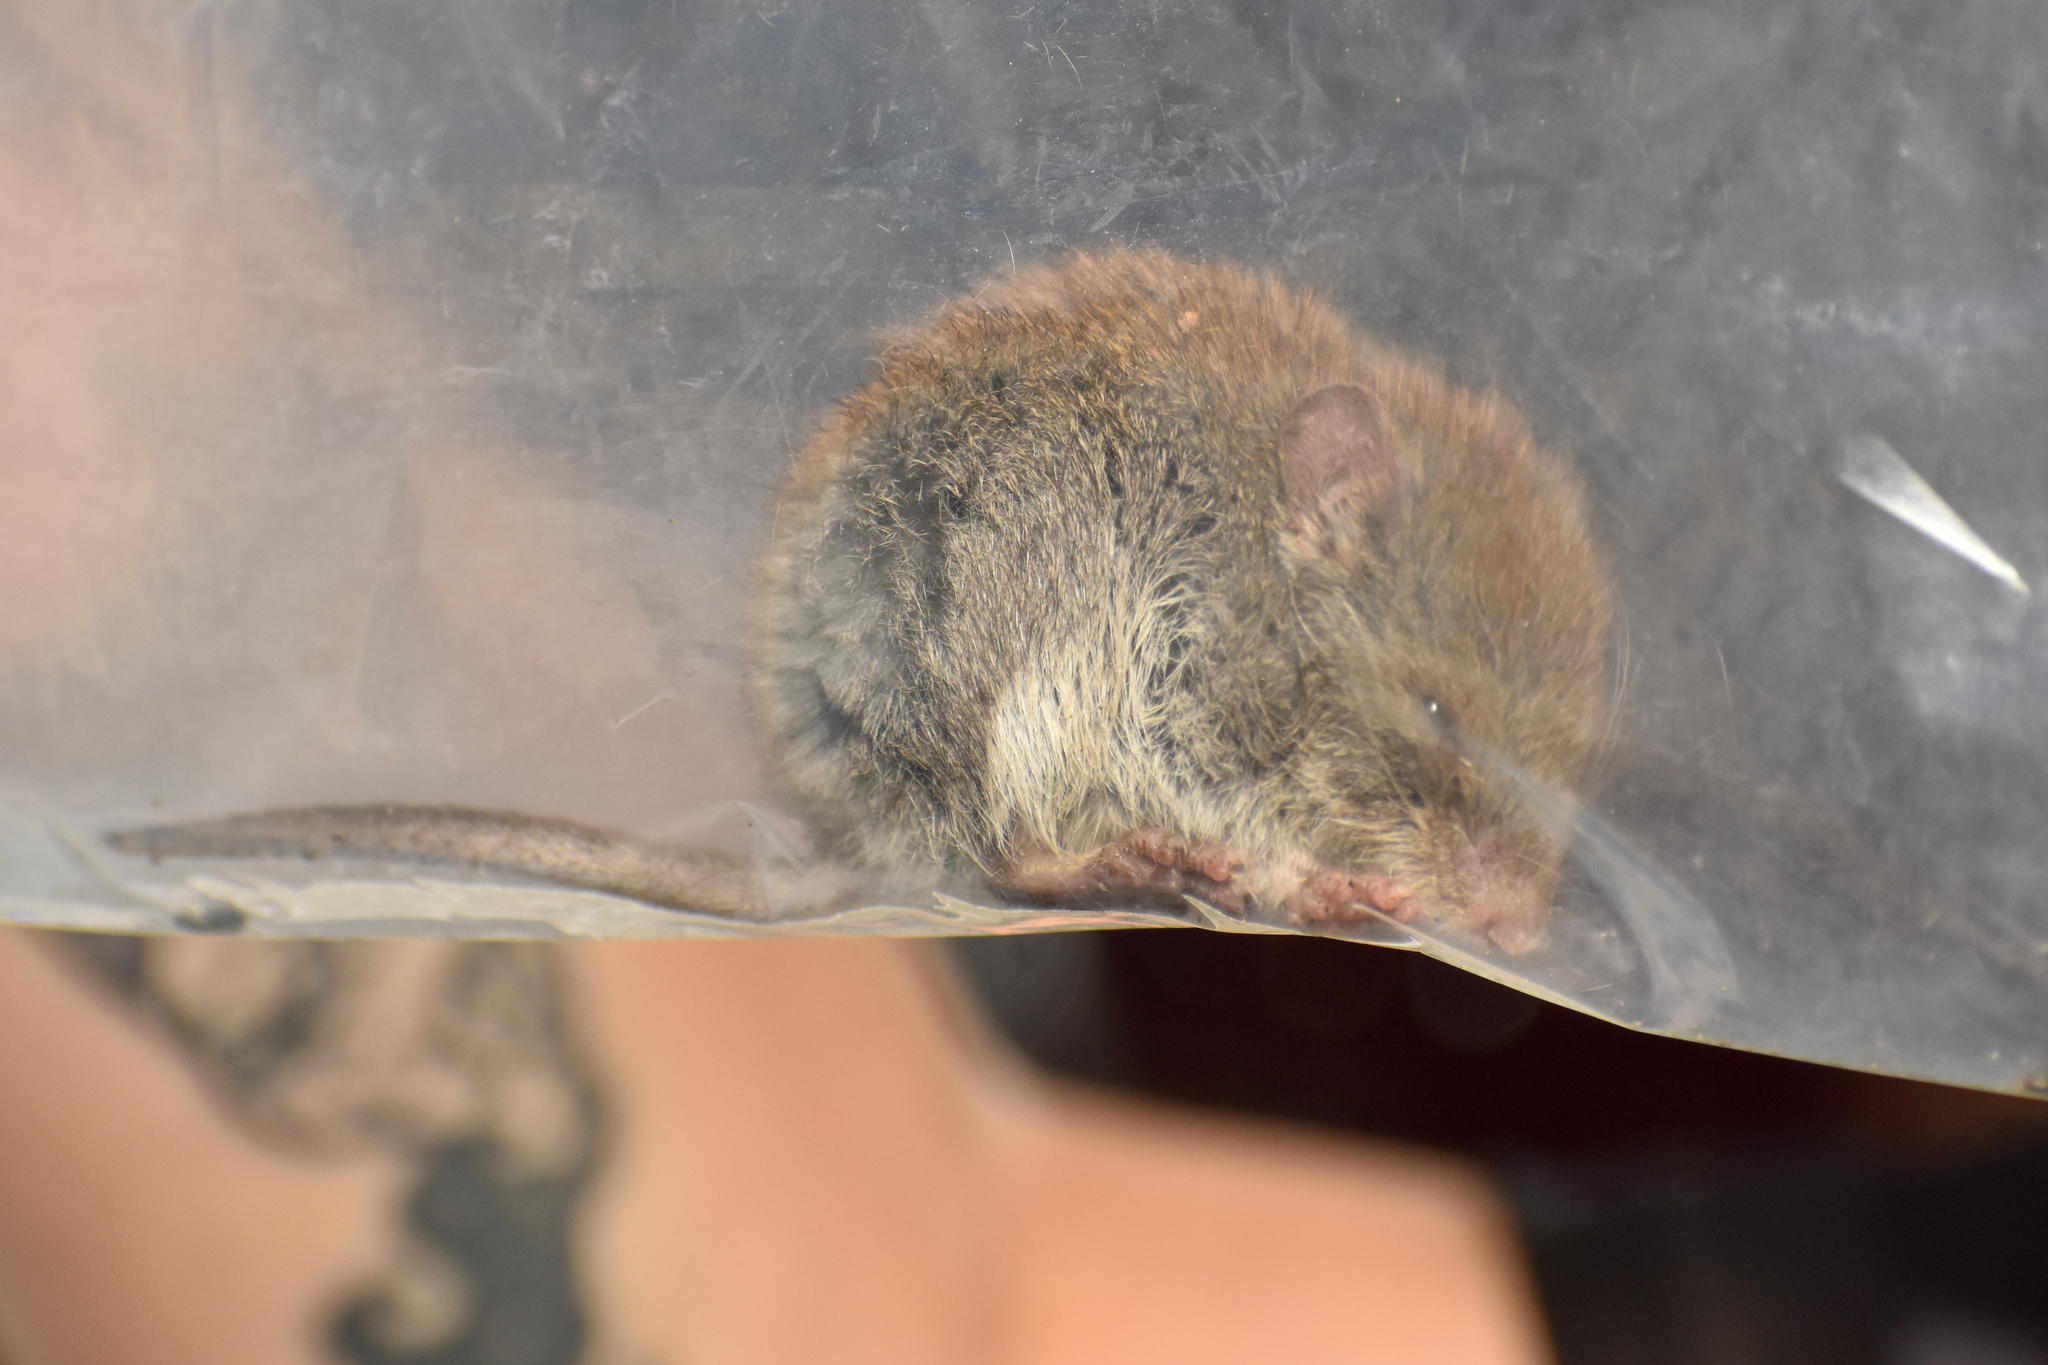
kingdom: Animalia
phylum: Chordata
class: Mammalia
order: Rodentia
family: Cricetidae
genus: Abrothrix
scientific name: Abrothrix olivaceus
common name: Olive-colored akodont
